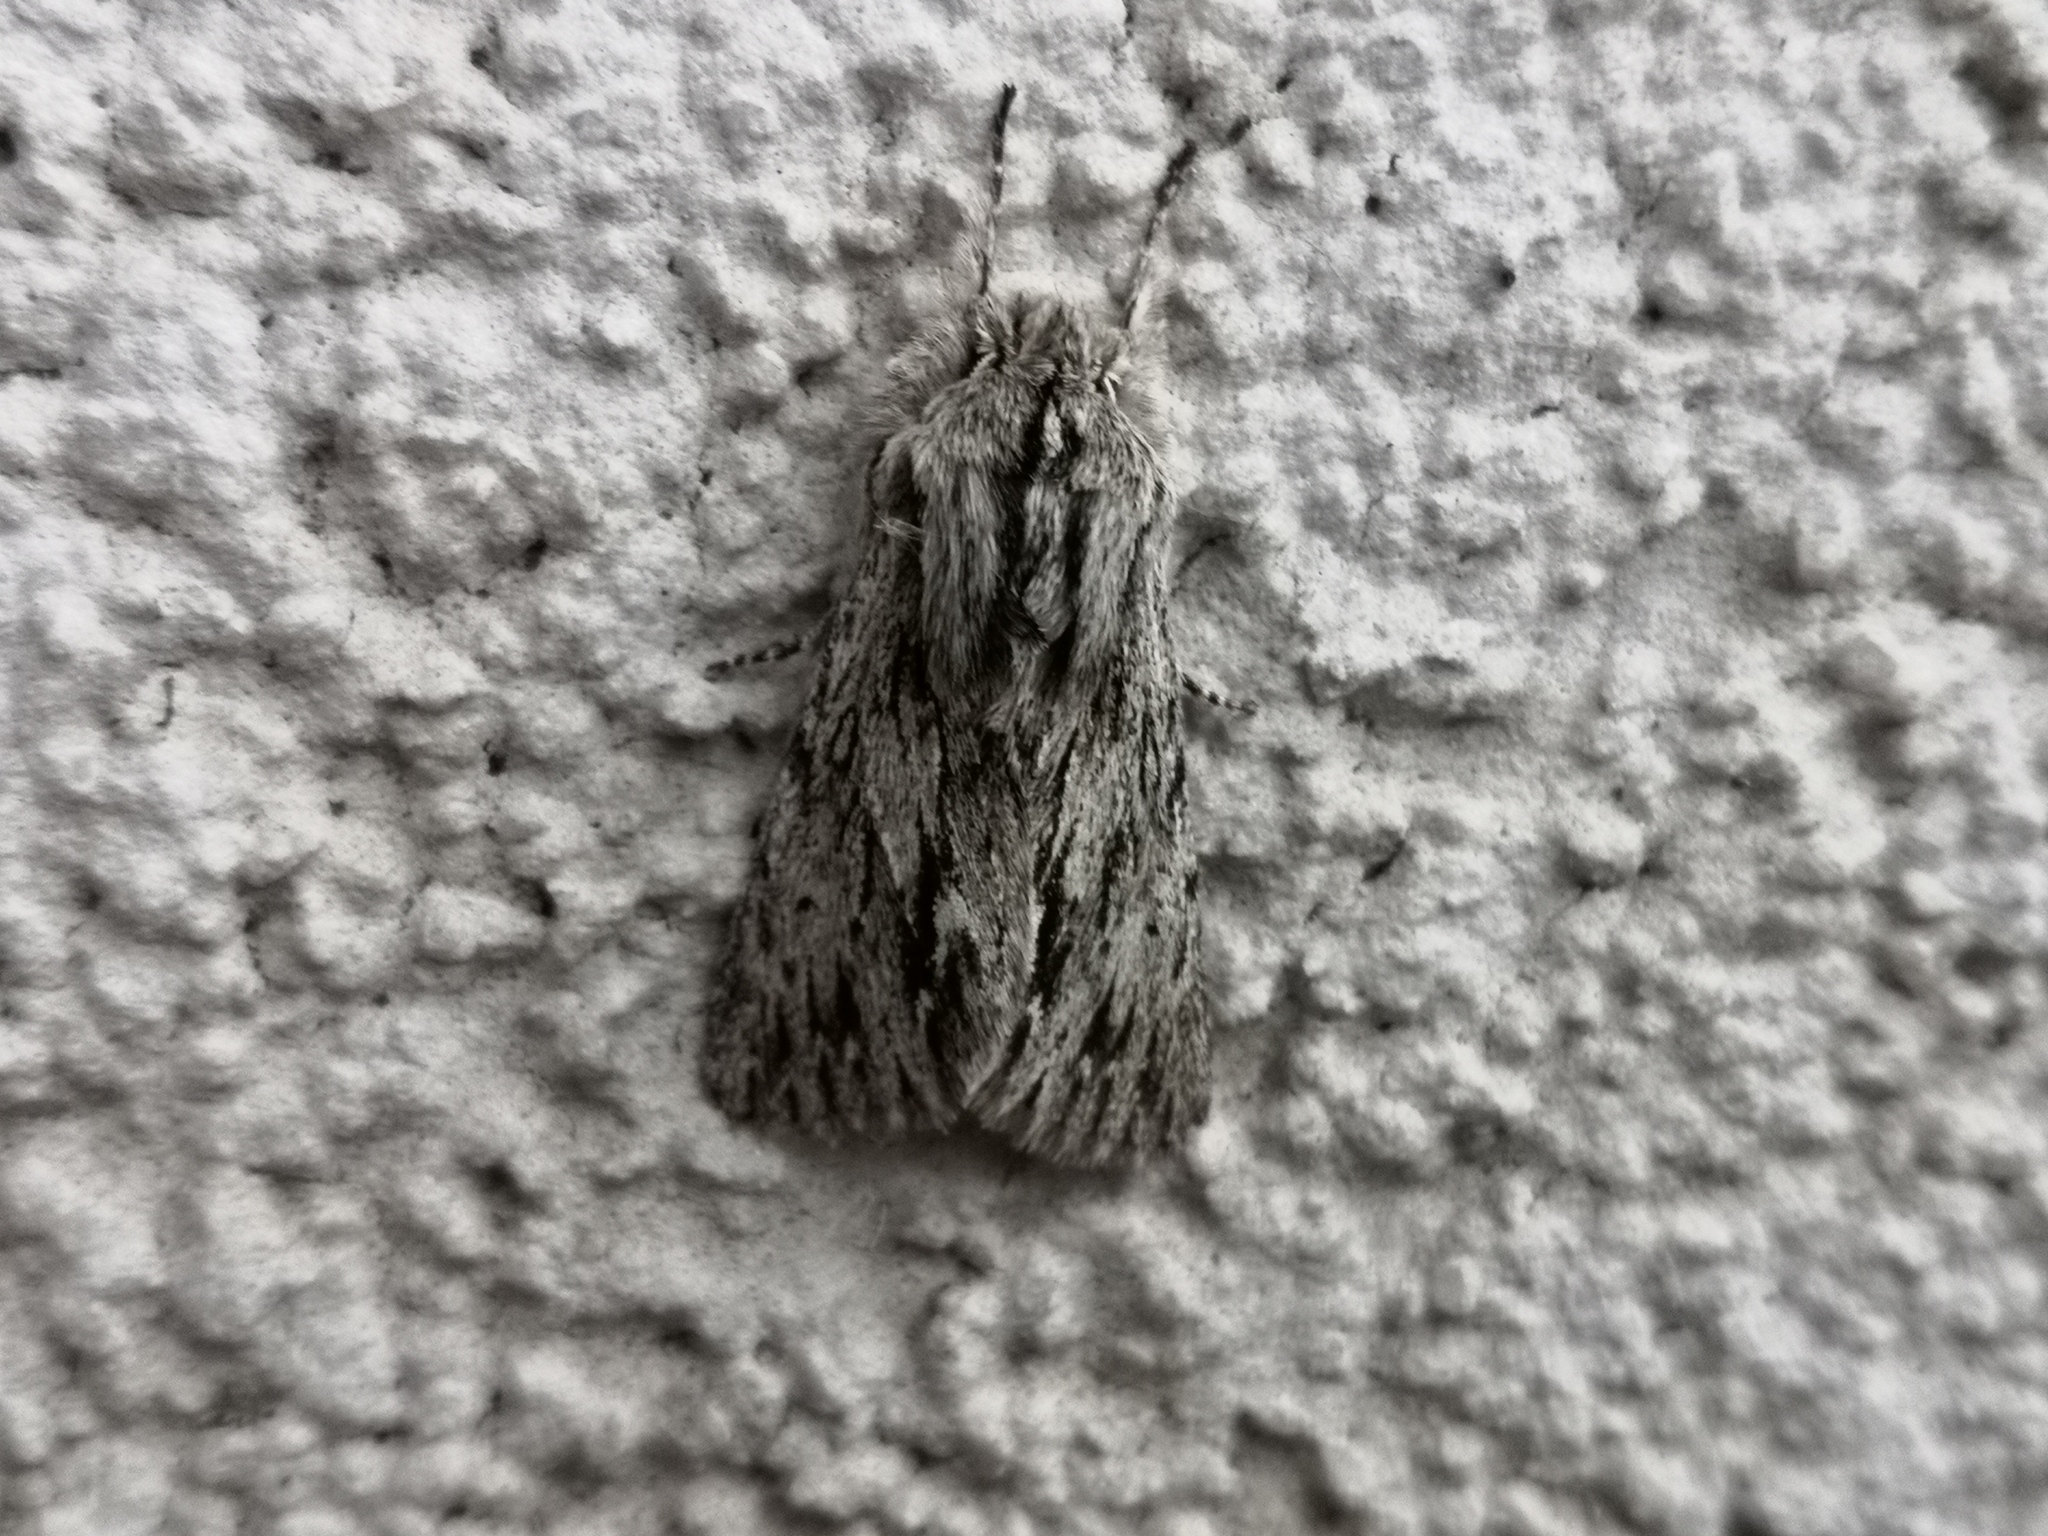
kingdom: Animalia
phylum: Arthropoda
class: Insecta
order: Lepidoptera
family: Noctuidae
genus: Asteroscopus
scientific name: Asteroscopus sphinx
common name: The sprawler
